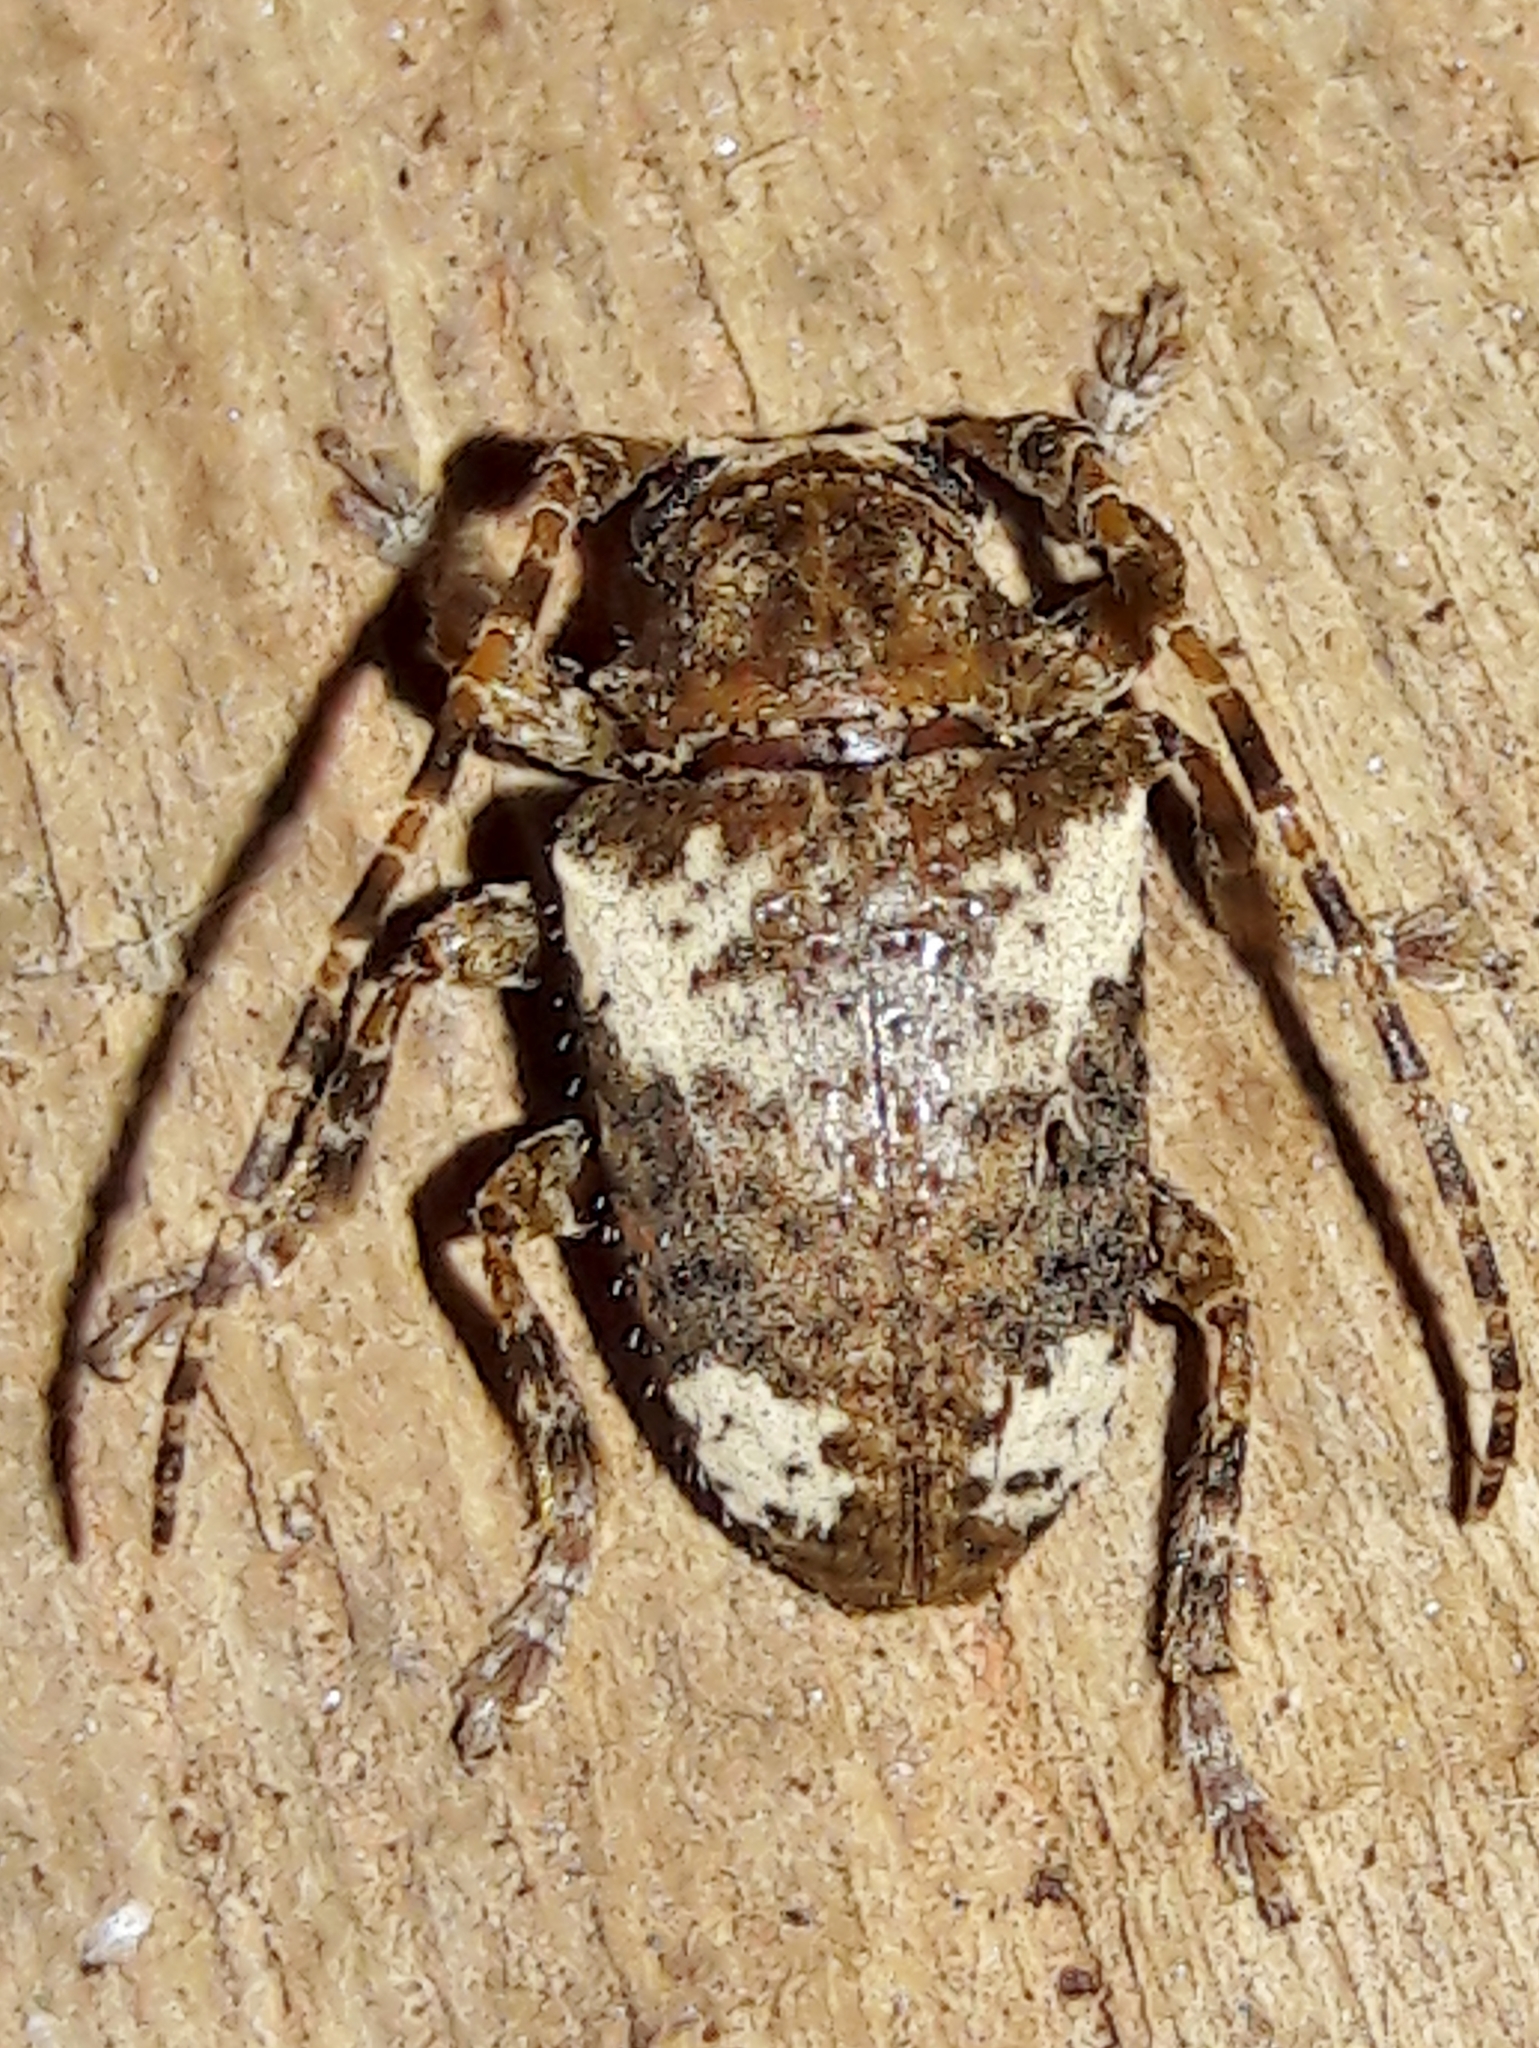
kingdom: Animalia
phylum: Arthropoda
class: Insecta
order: Coleoptera
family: Cerambycidae
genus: Aerenea
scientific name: Aerenea quadriplagiata
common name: Amaranth stem borer
